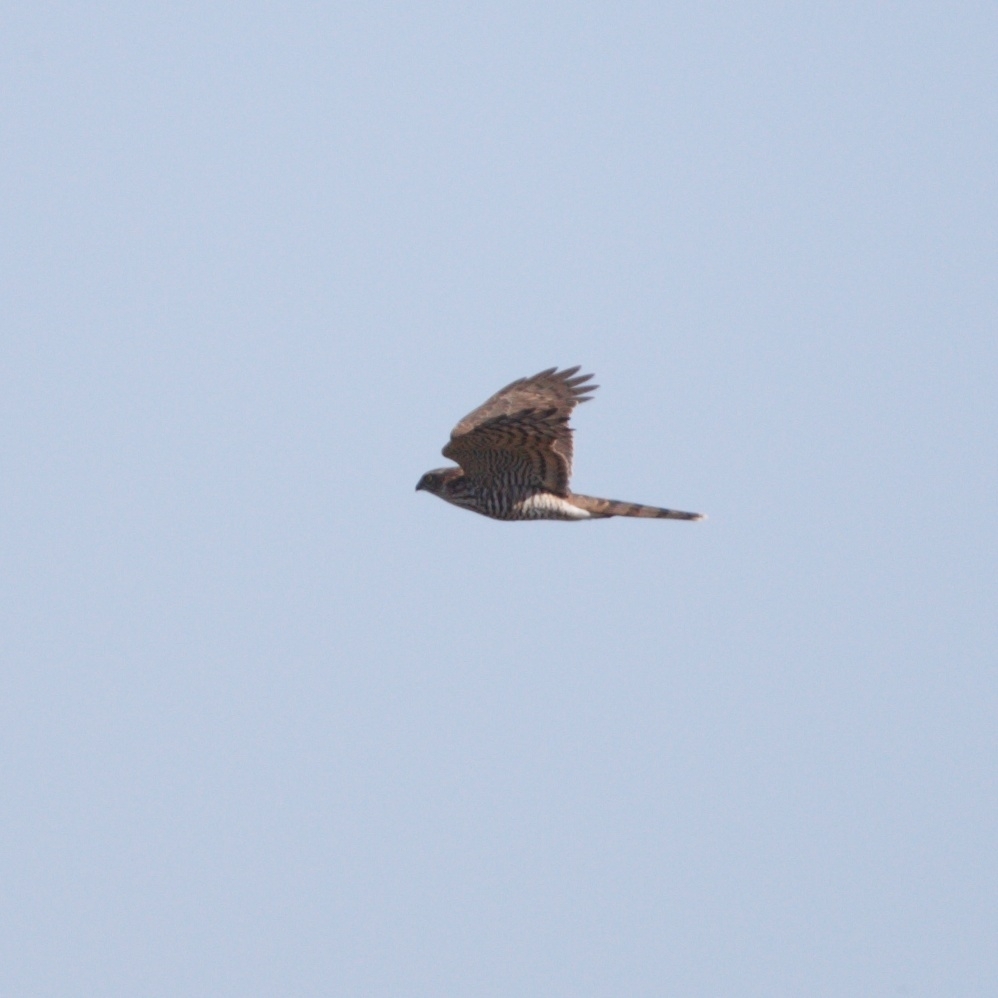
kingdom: Animalia
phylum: Chordata
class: Aves
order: Accipitriformes
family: Accipitridae
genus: Accipiter
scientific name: Accipiter nisus
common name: Eurasian sparrowhawk
